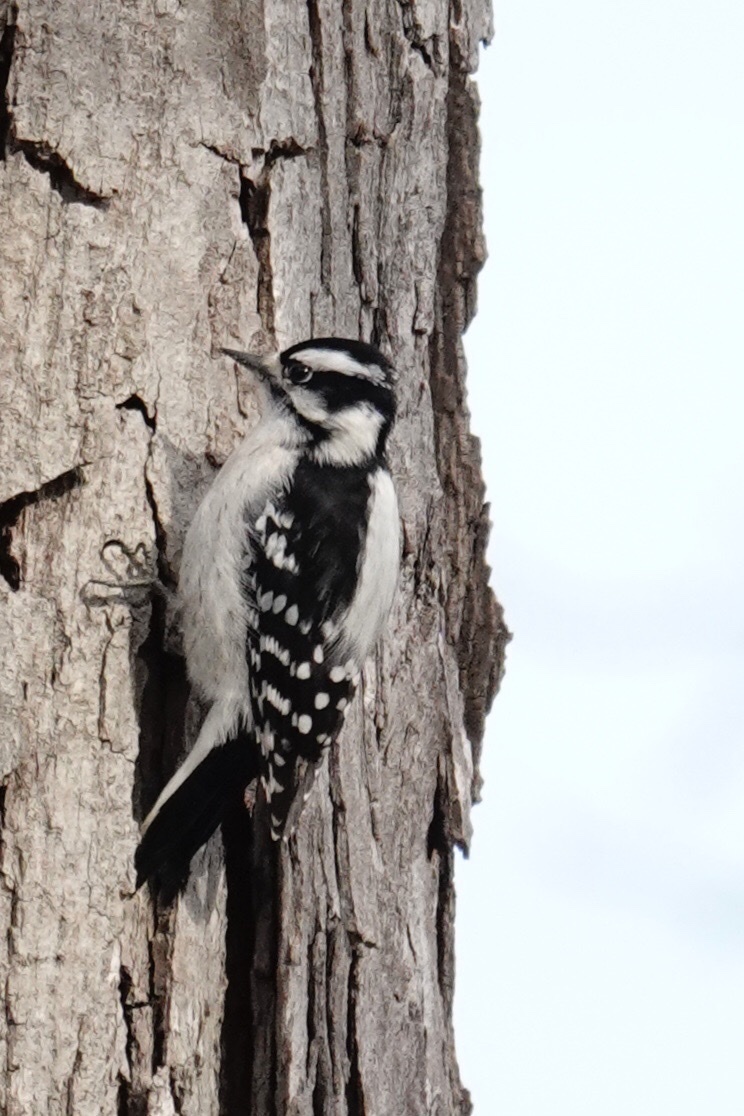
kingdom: Animalia
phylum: Chordata
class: Aves
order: Piciformes
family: Picidae
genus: Dryobates
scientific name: Dryobates pubescens
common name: Downy woodpecker
